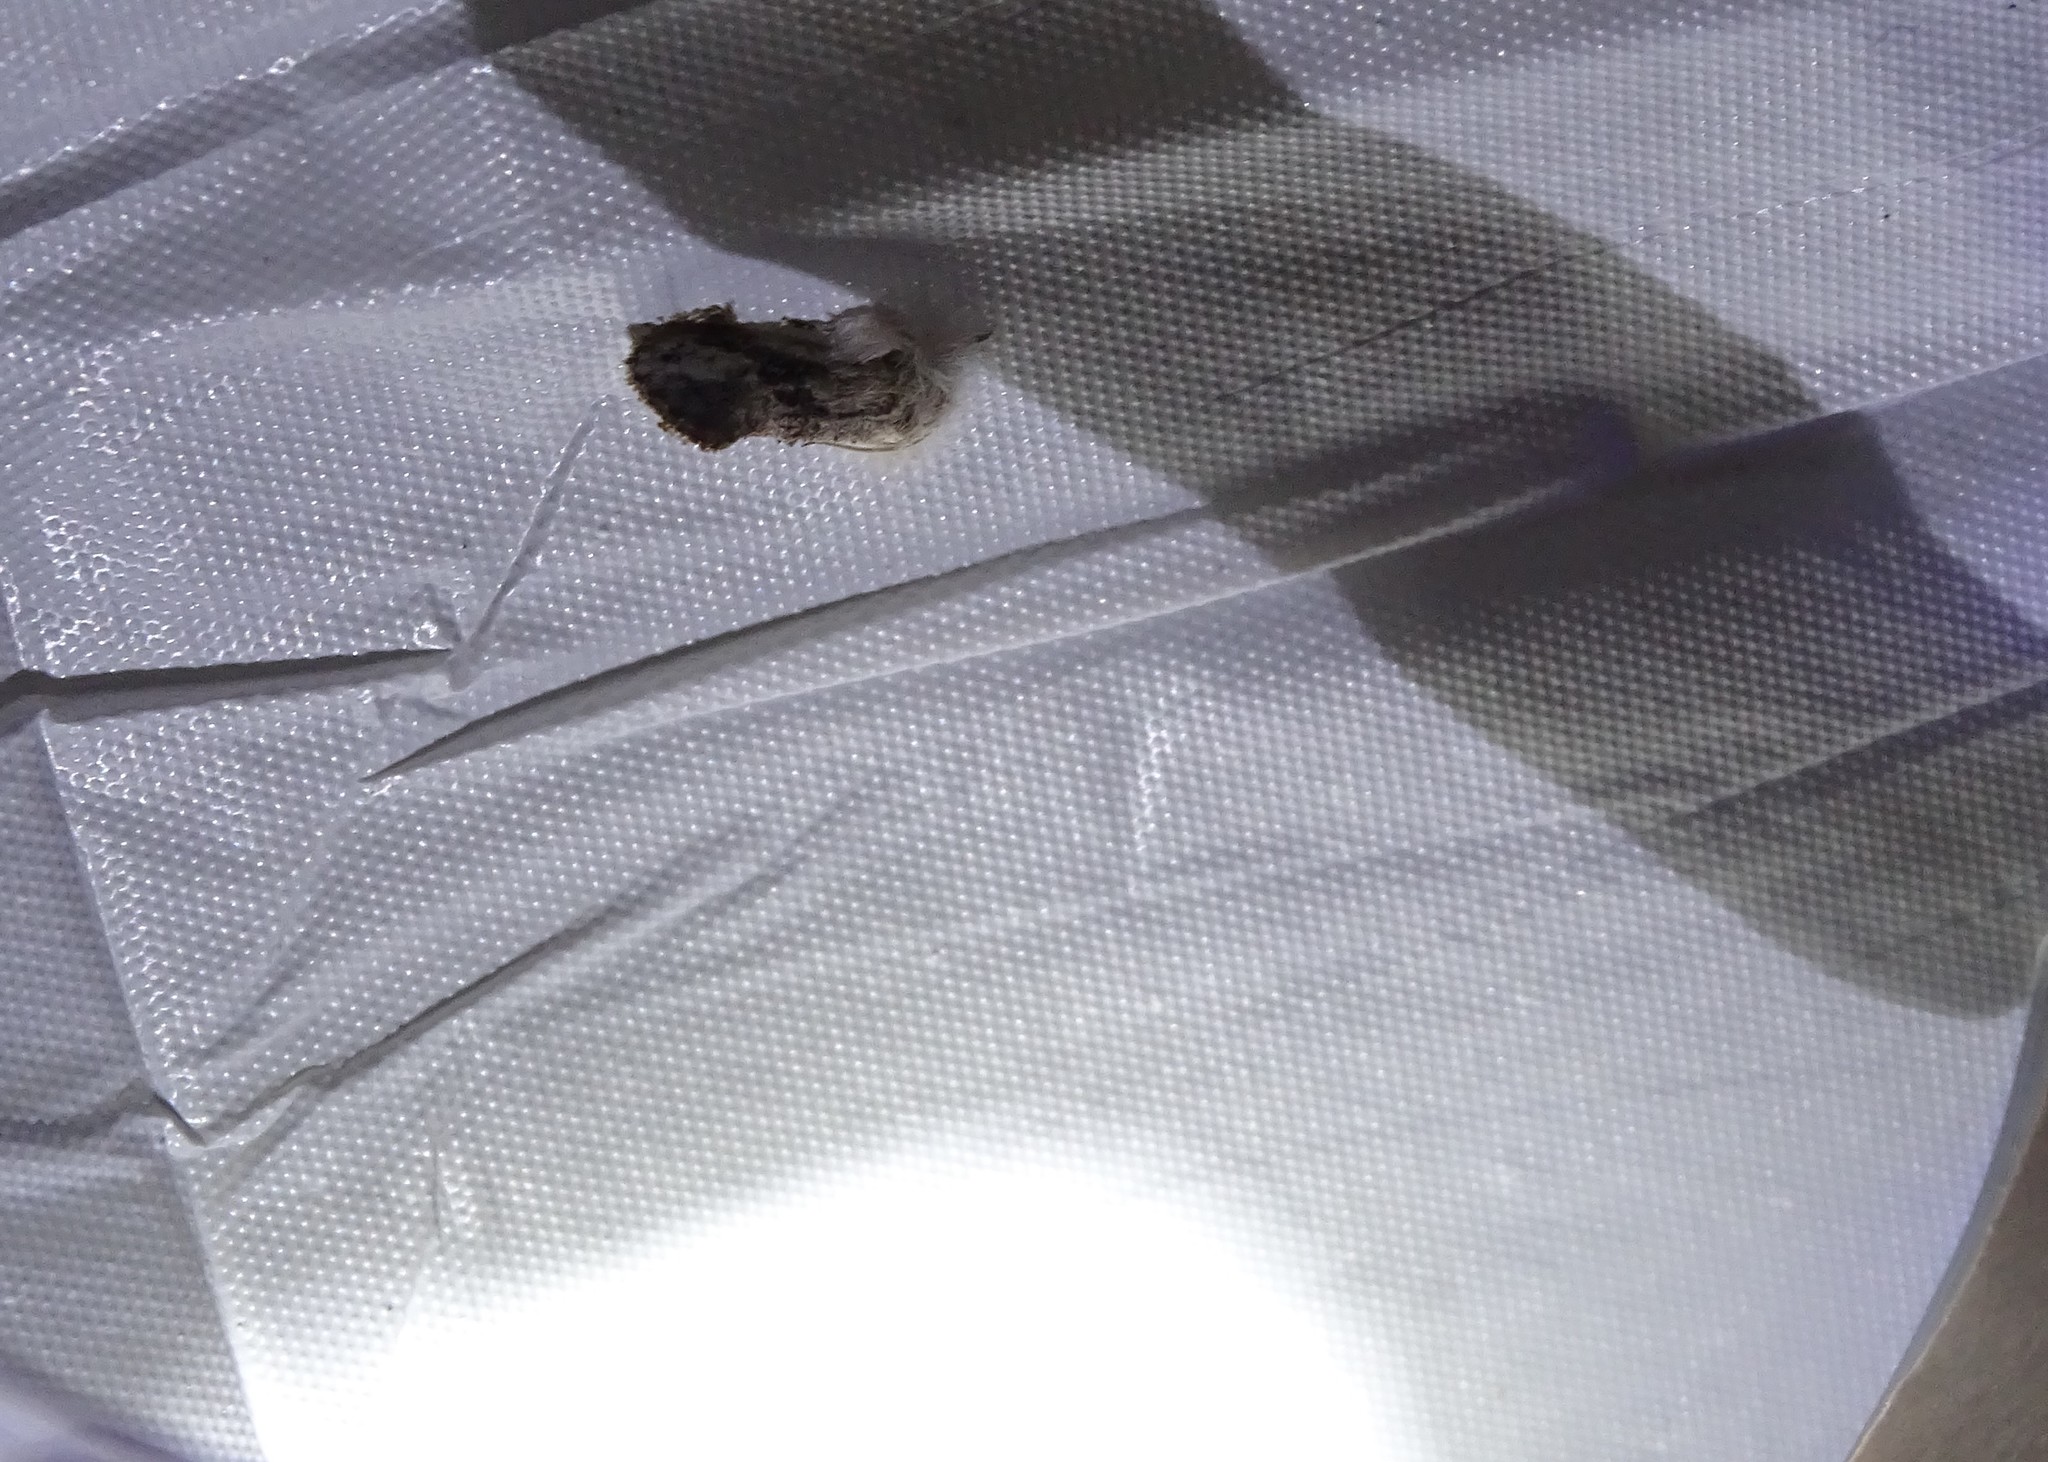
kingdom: Animalia
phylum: Arthropoda
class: Insecta
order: Lepidoptera
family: Tineidae
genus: Acrolophus
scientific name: Acrolophus mycetophagus
